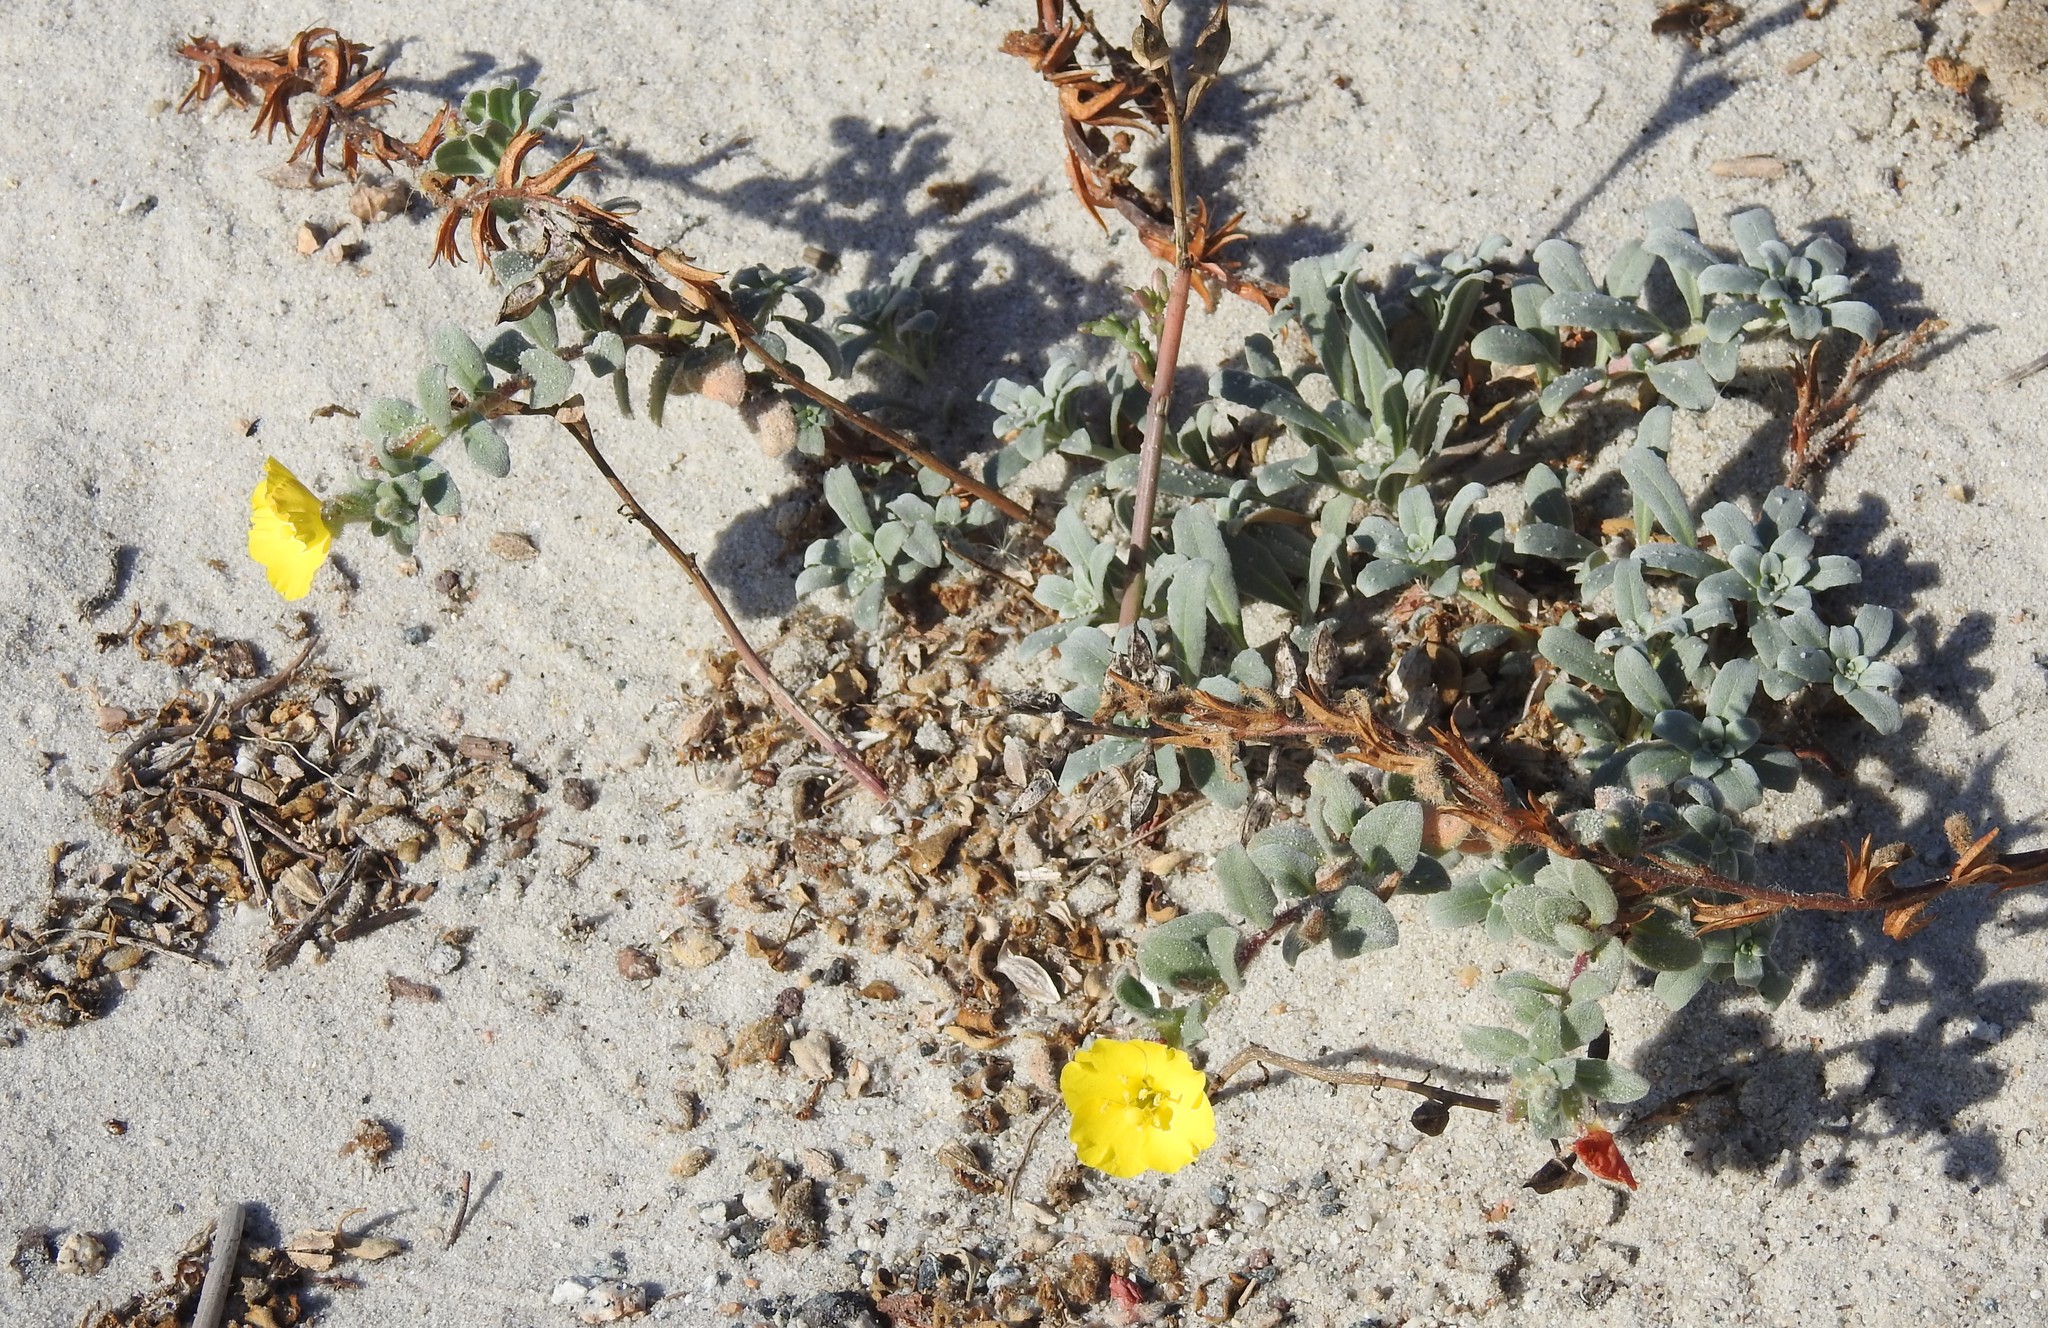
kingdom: Plantae
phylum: Tracheophyta
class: Magnoliopsida
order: Myrtales
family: Onagraceae
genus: Camissoniopsis
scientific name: Camissoniopsis cheiranthifolia
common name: Beach suncup
